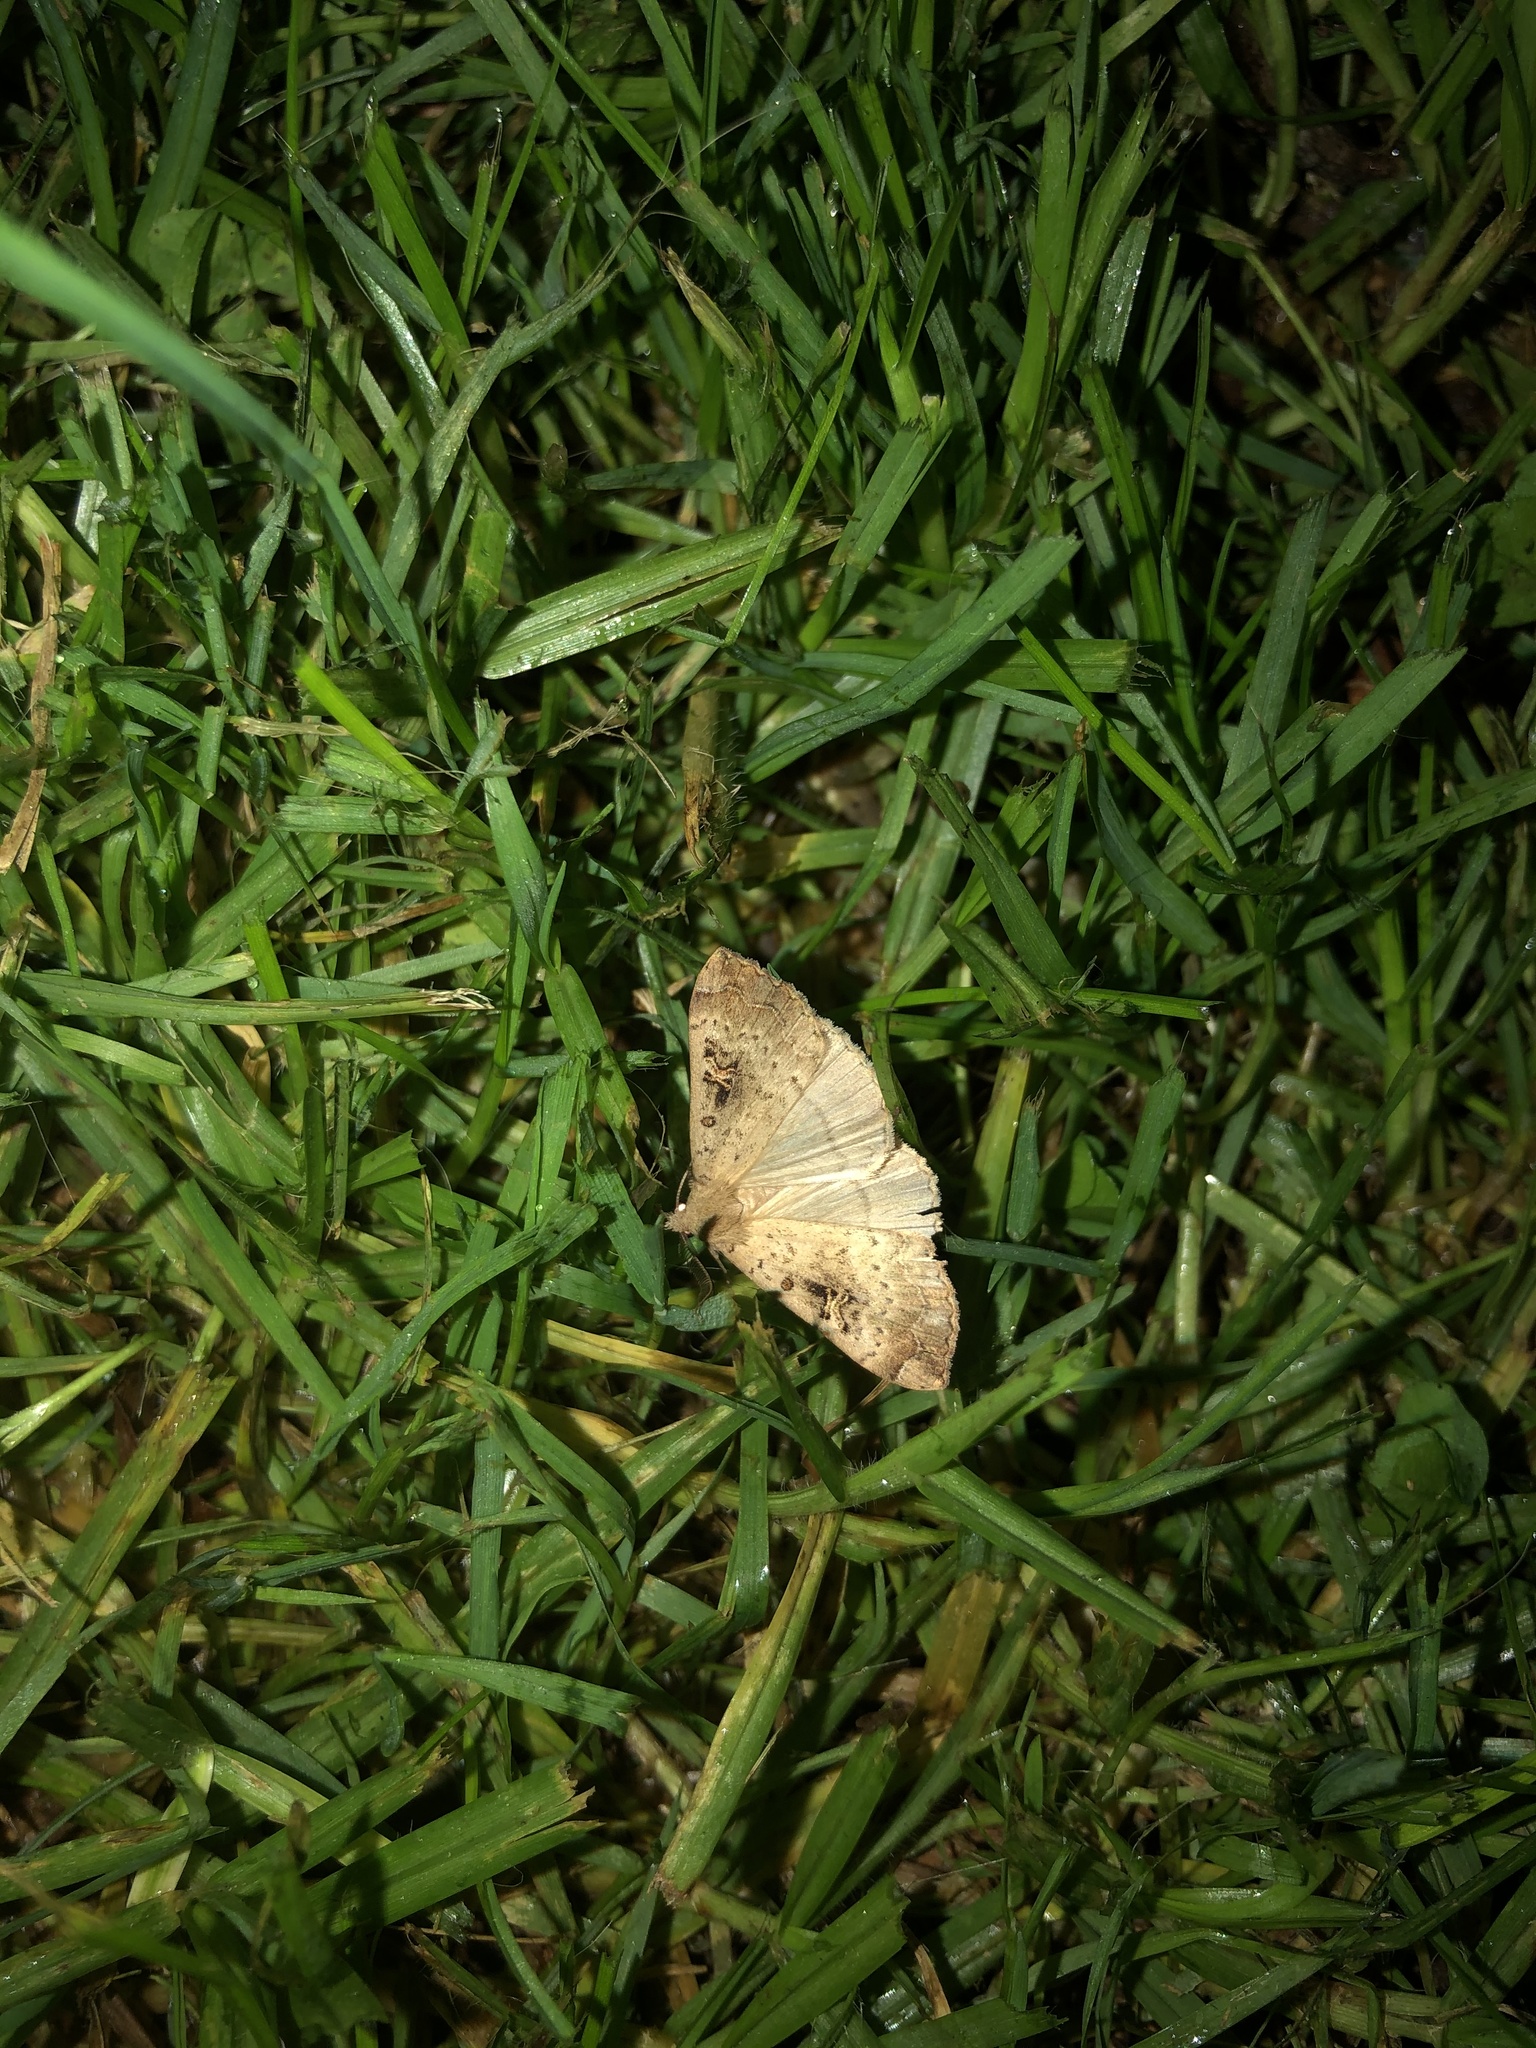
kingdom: Animalia
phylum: Arthropoda
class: Insecta
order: Lepidoptera
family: Erebidae
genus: Rhapsa
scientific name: Rhapsa scotosialis
